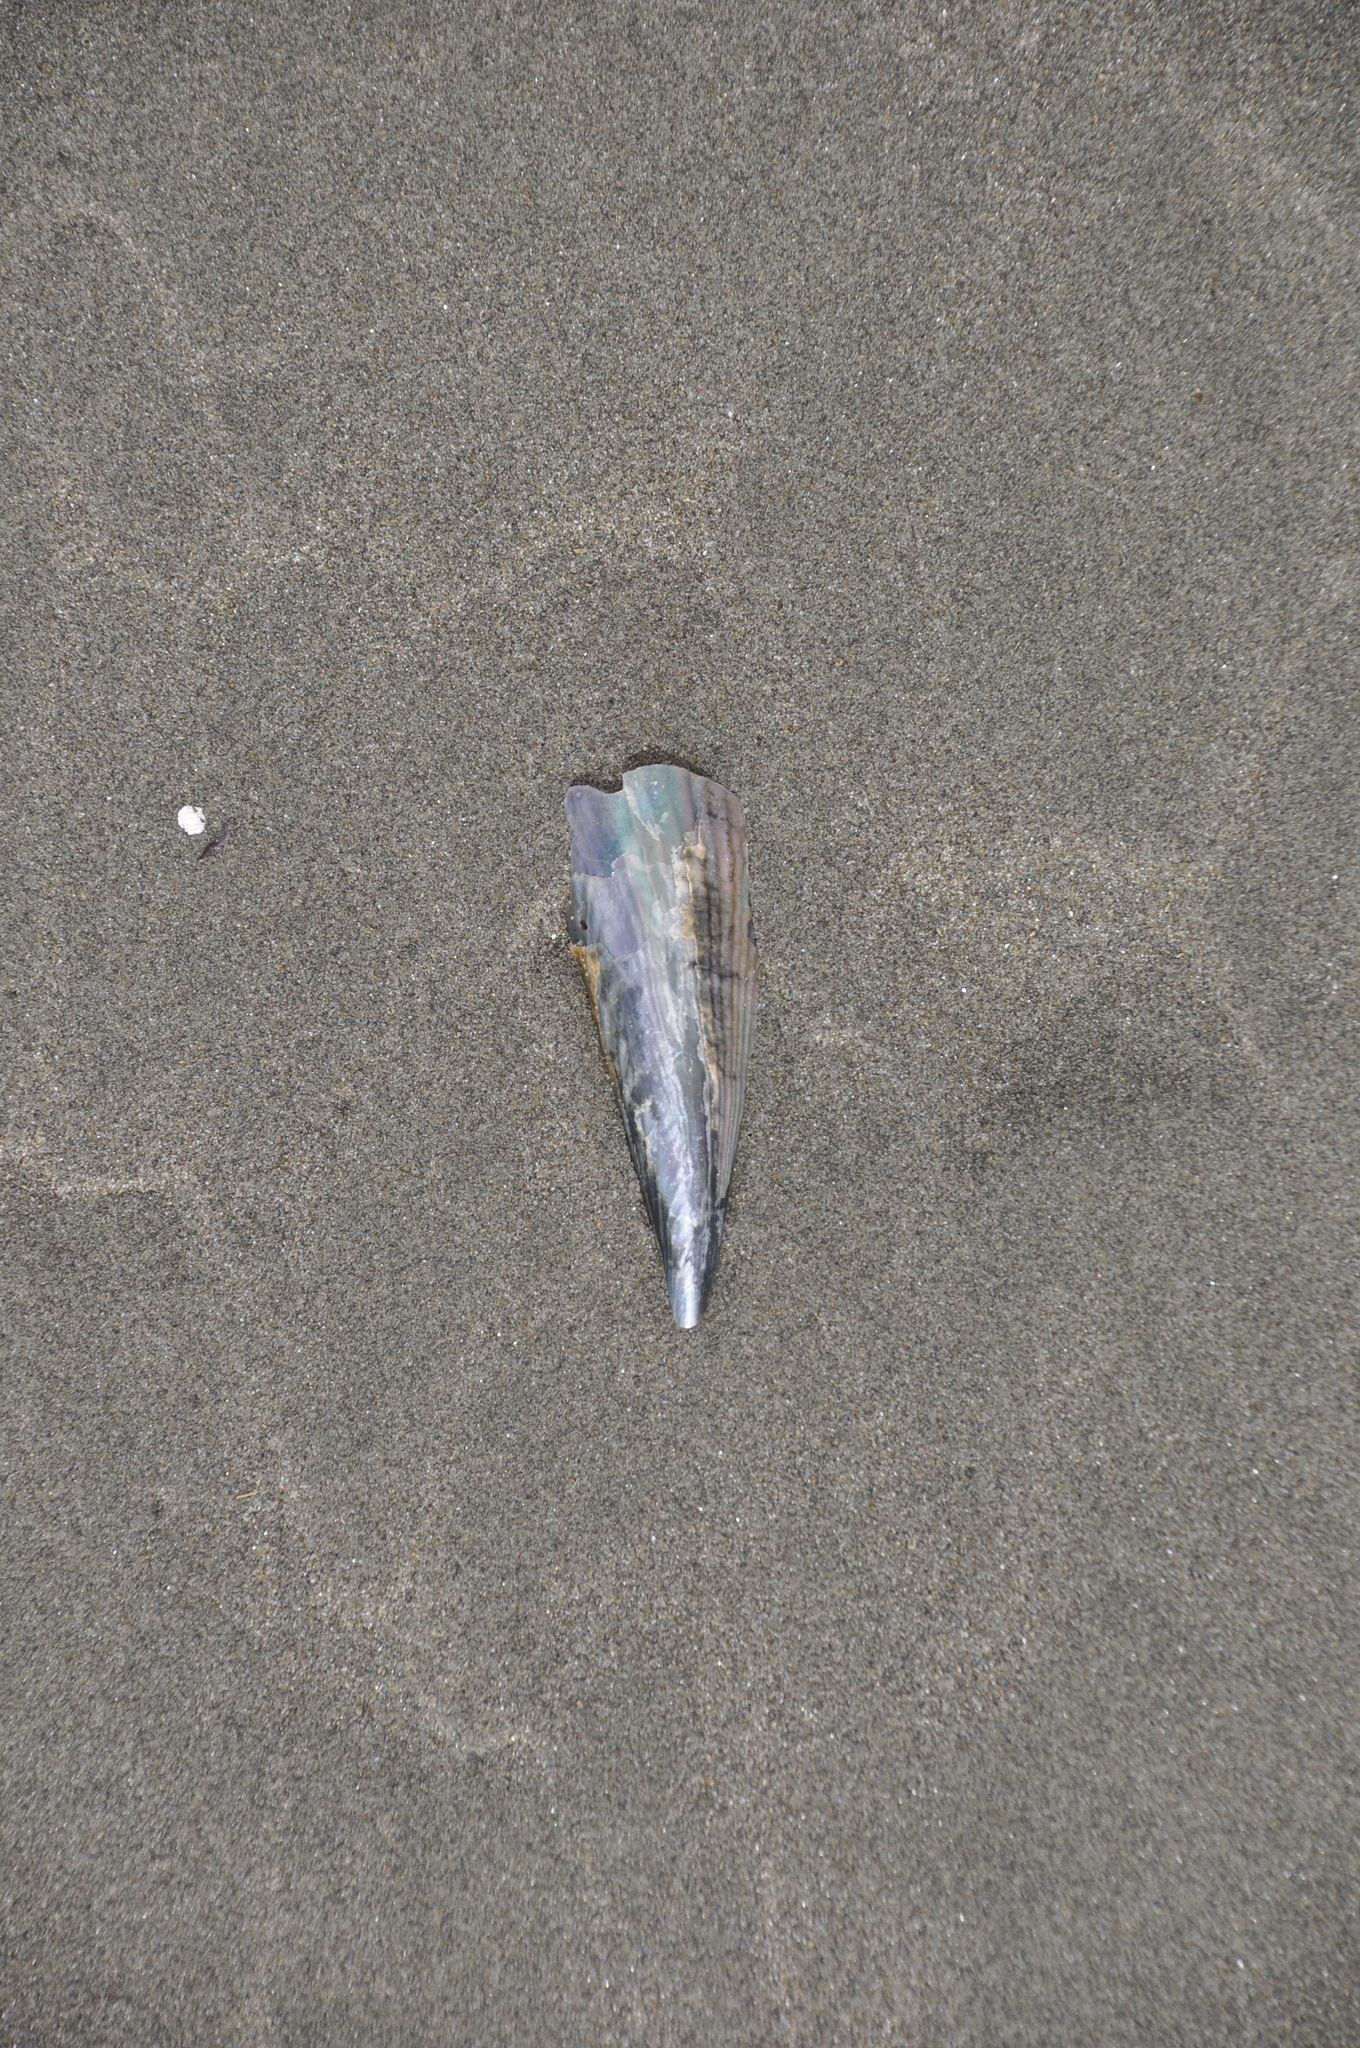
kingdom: Animalia
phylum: Mollusca
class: Bivalvia
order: Ostreida
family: Pinnidae
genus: Atrina
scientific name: Atrina zelandica
